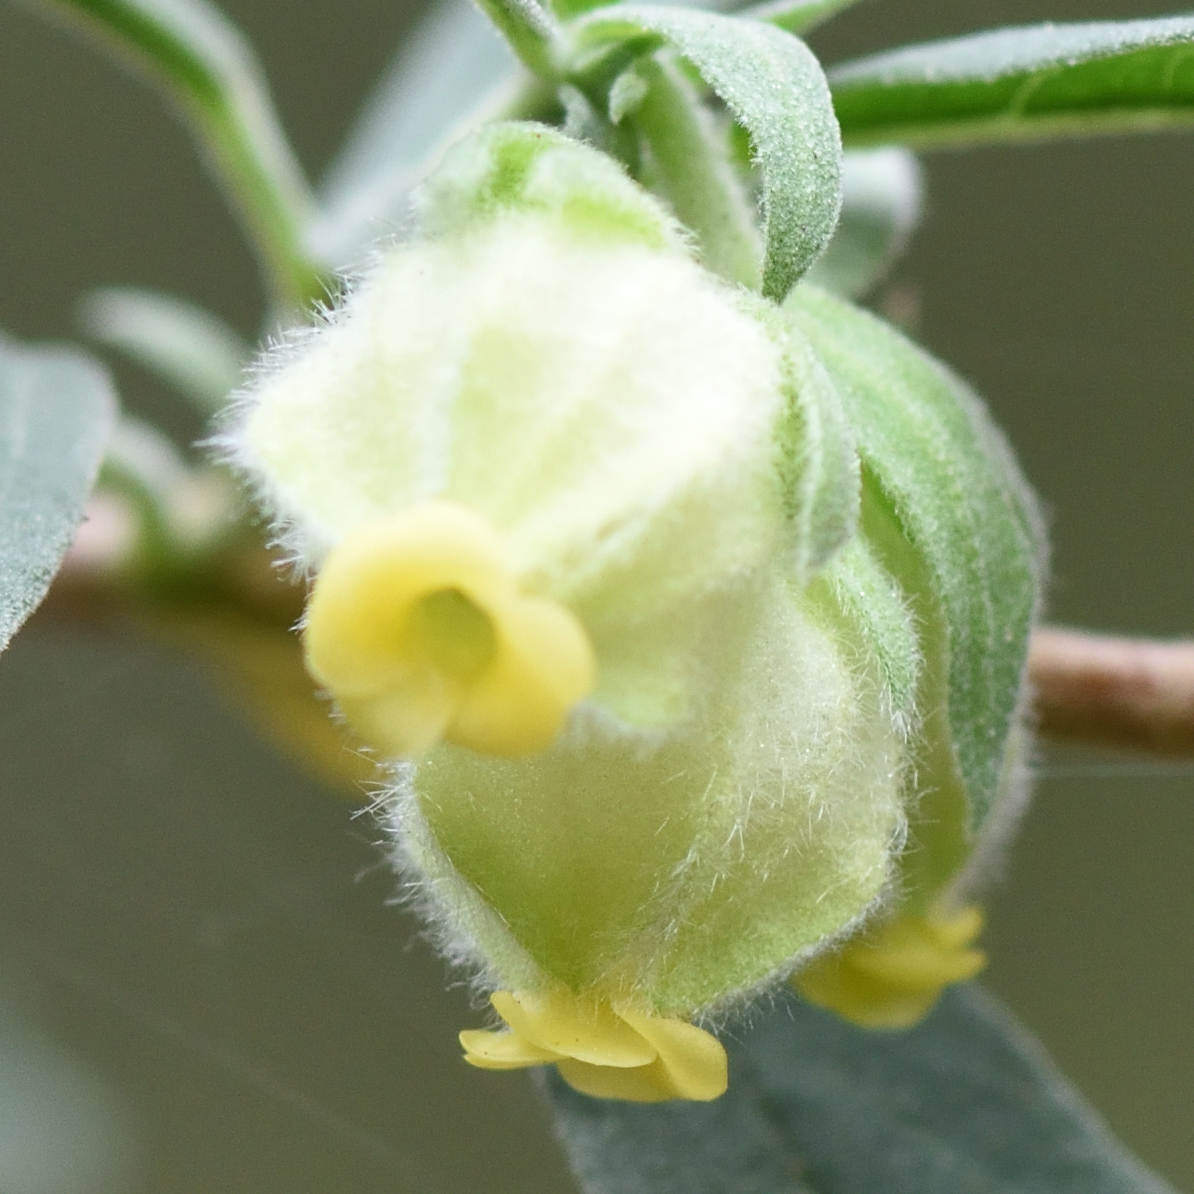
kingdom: Plantae
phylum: Tracheophyta
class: Magnoliopsida
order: Malvales
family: Malvaceae
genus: Hermannia
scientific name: Hermannia hyssopifolia
